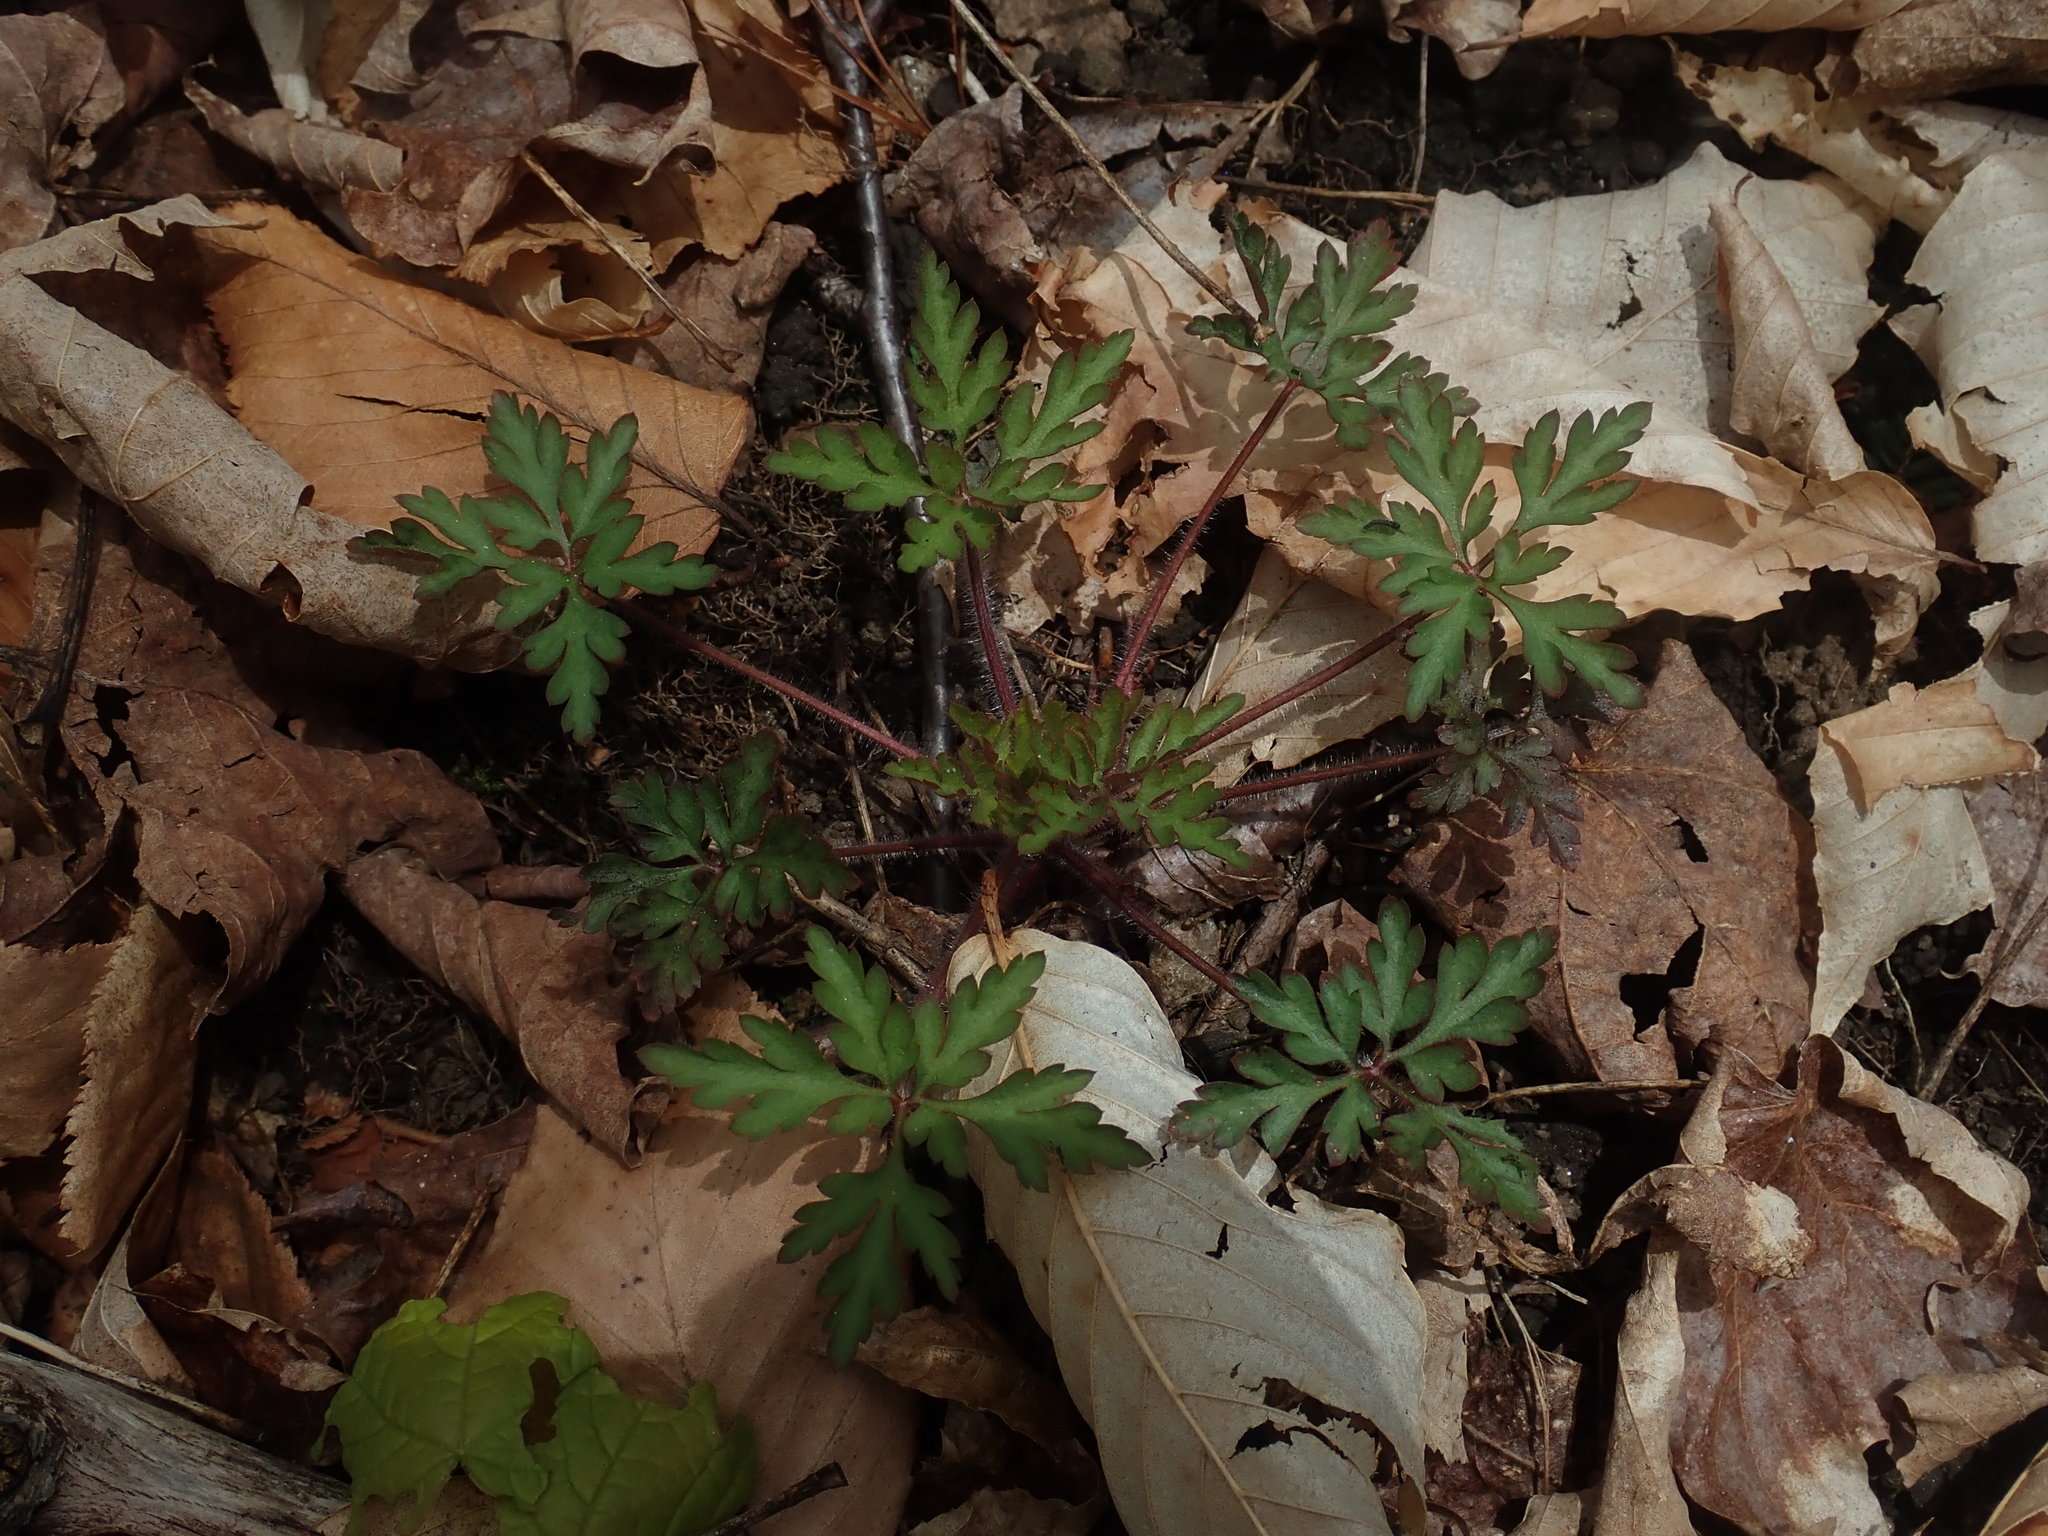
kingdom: Plantae
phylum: Tracheophyta
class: Magnoliopsida
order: Geraniales
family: Geraniaceae
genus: Geranium
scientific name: Geranium robertianum
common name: Herb-robert
